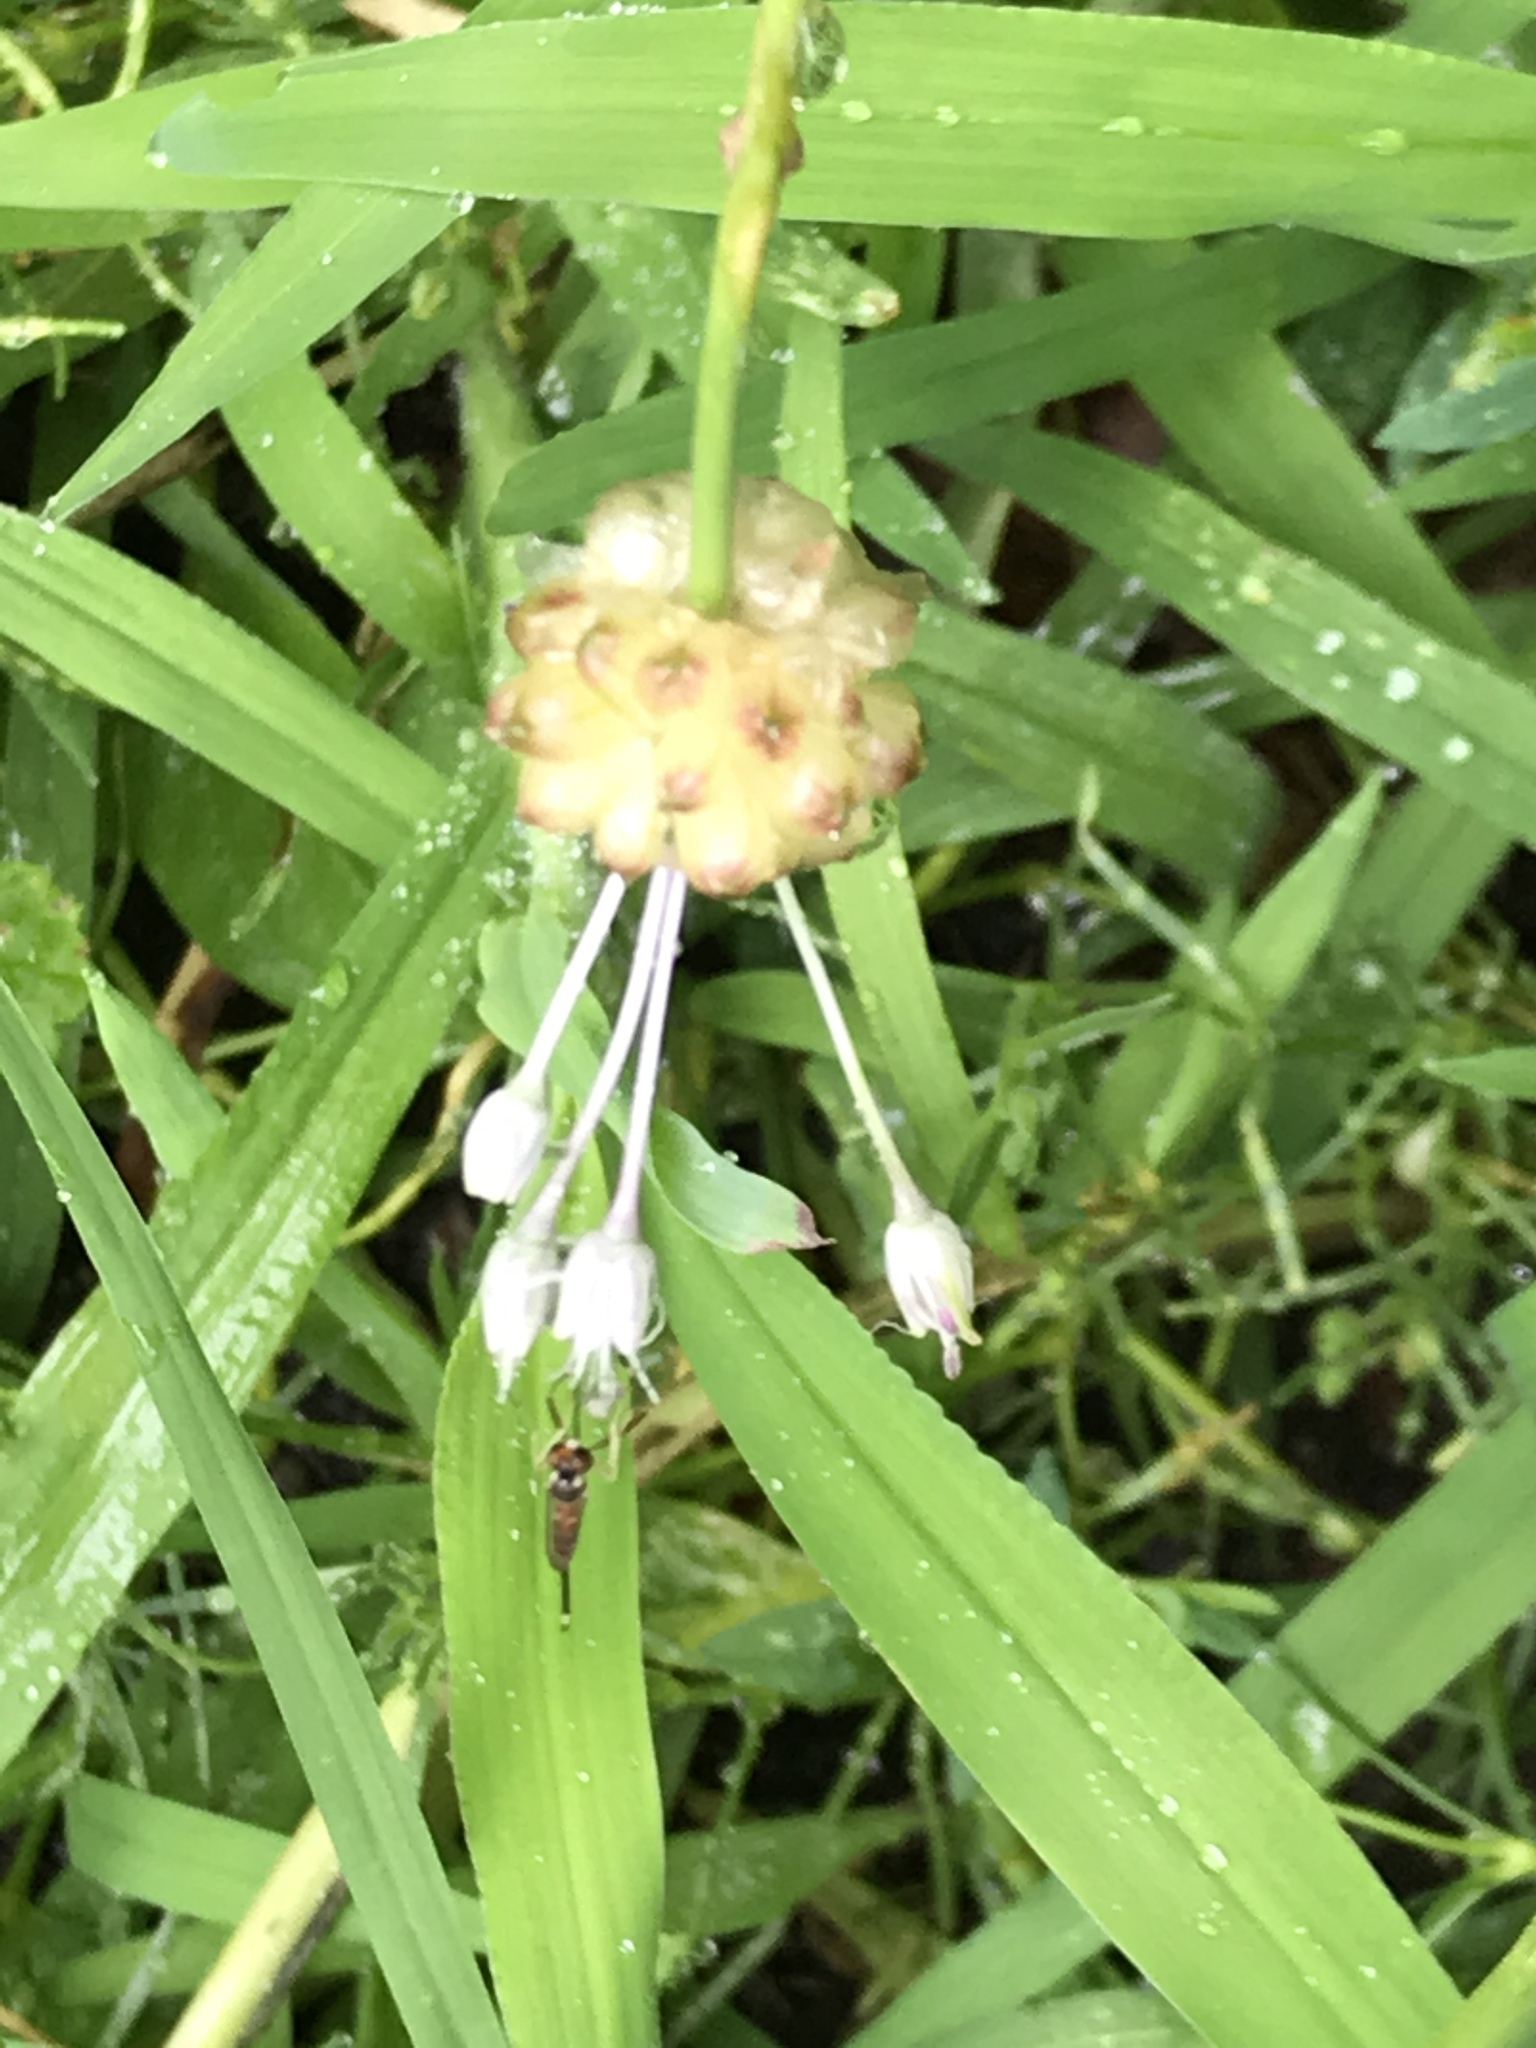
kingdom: Plantae
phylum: Tracheophyta
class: Liliopsida
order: Asparagales
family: Amaryllidaceae
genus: Allium
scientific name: Allium vineale
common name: Crow garlic
